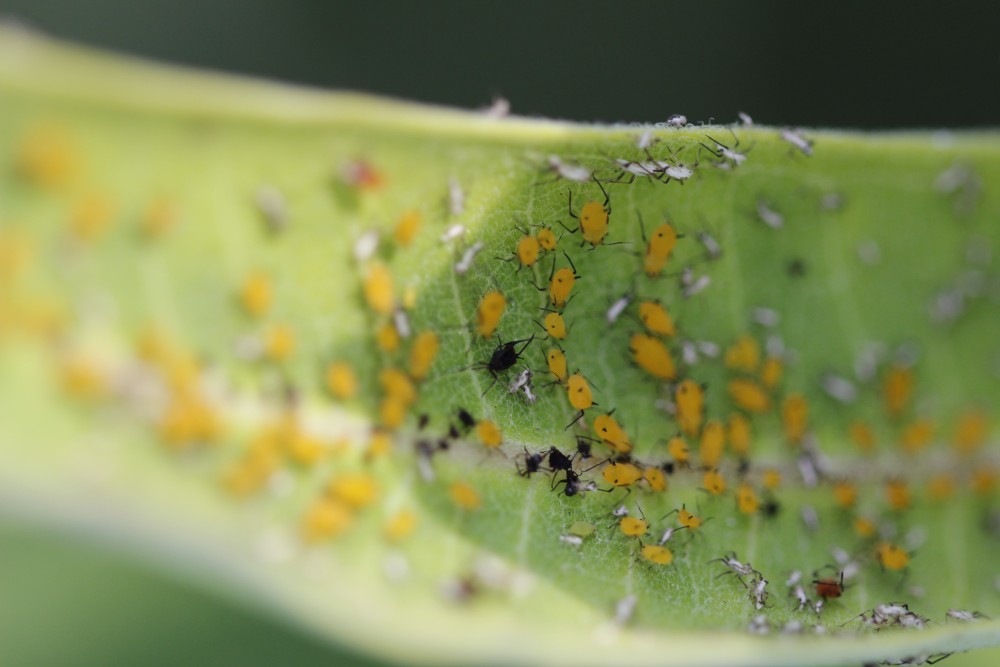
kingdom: Animalia
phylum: Arthropoda
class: Insecta
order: Hemiptera
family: Aphididae
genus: Aphis
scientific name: Aphis nerii
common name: Oleander aphid
